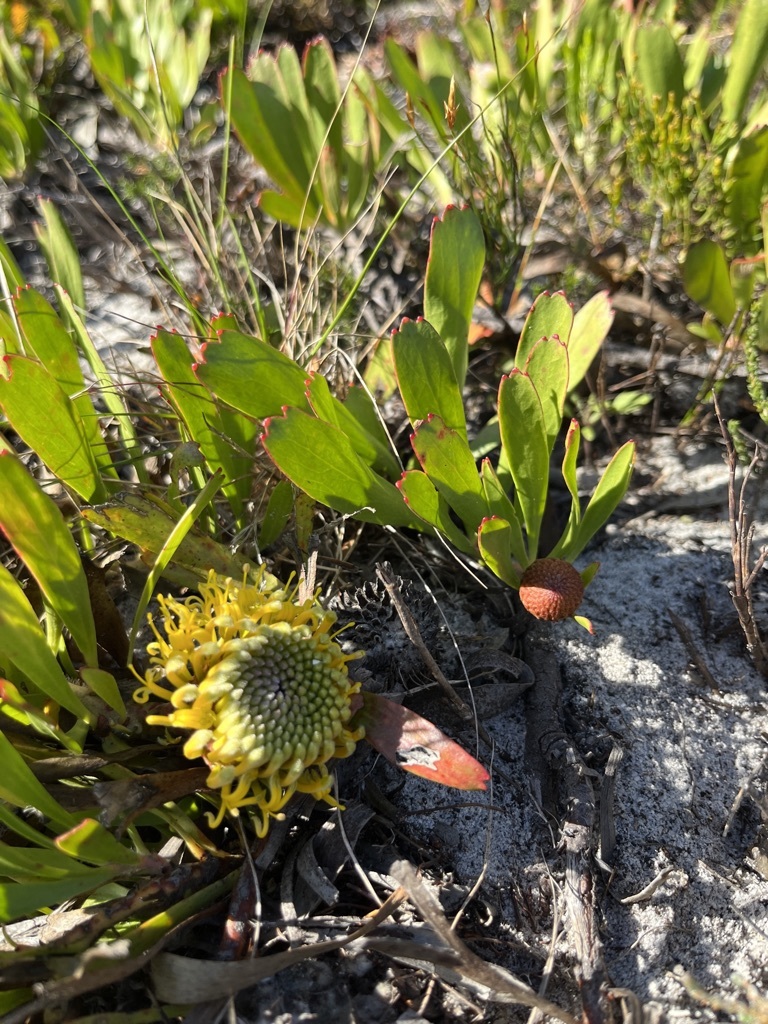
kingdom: Plantae
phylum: Tracheophyta
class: Magnoliopsida
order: Proteales
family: Proteaceae
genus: Leucospermum
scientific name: Leucospermum hypophyllocarpodendron
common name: Snakestem pincushion
